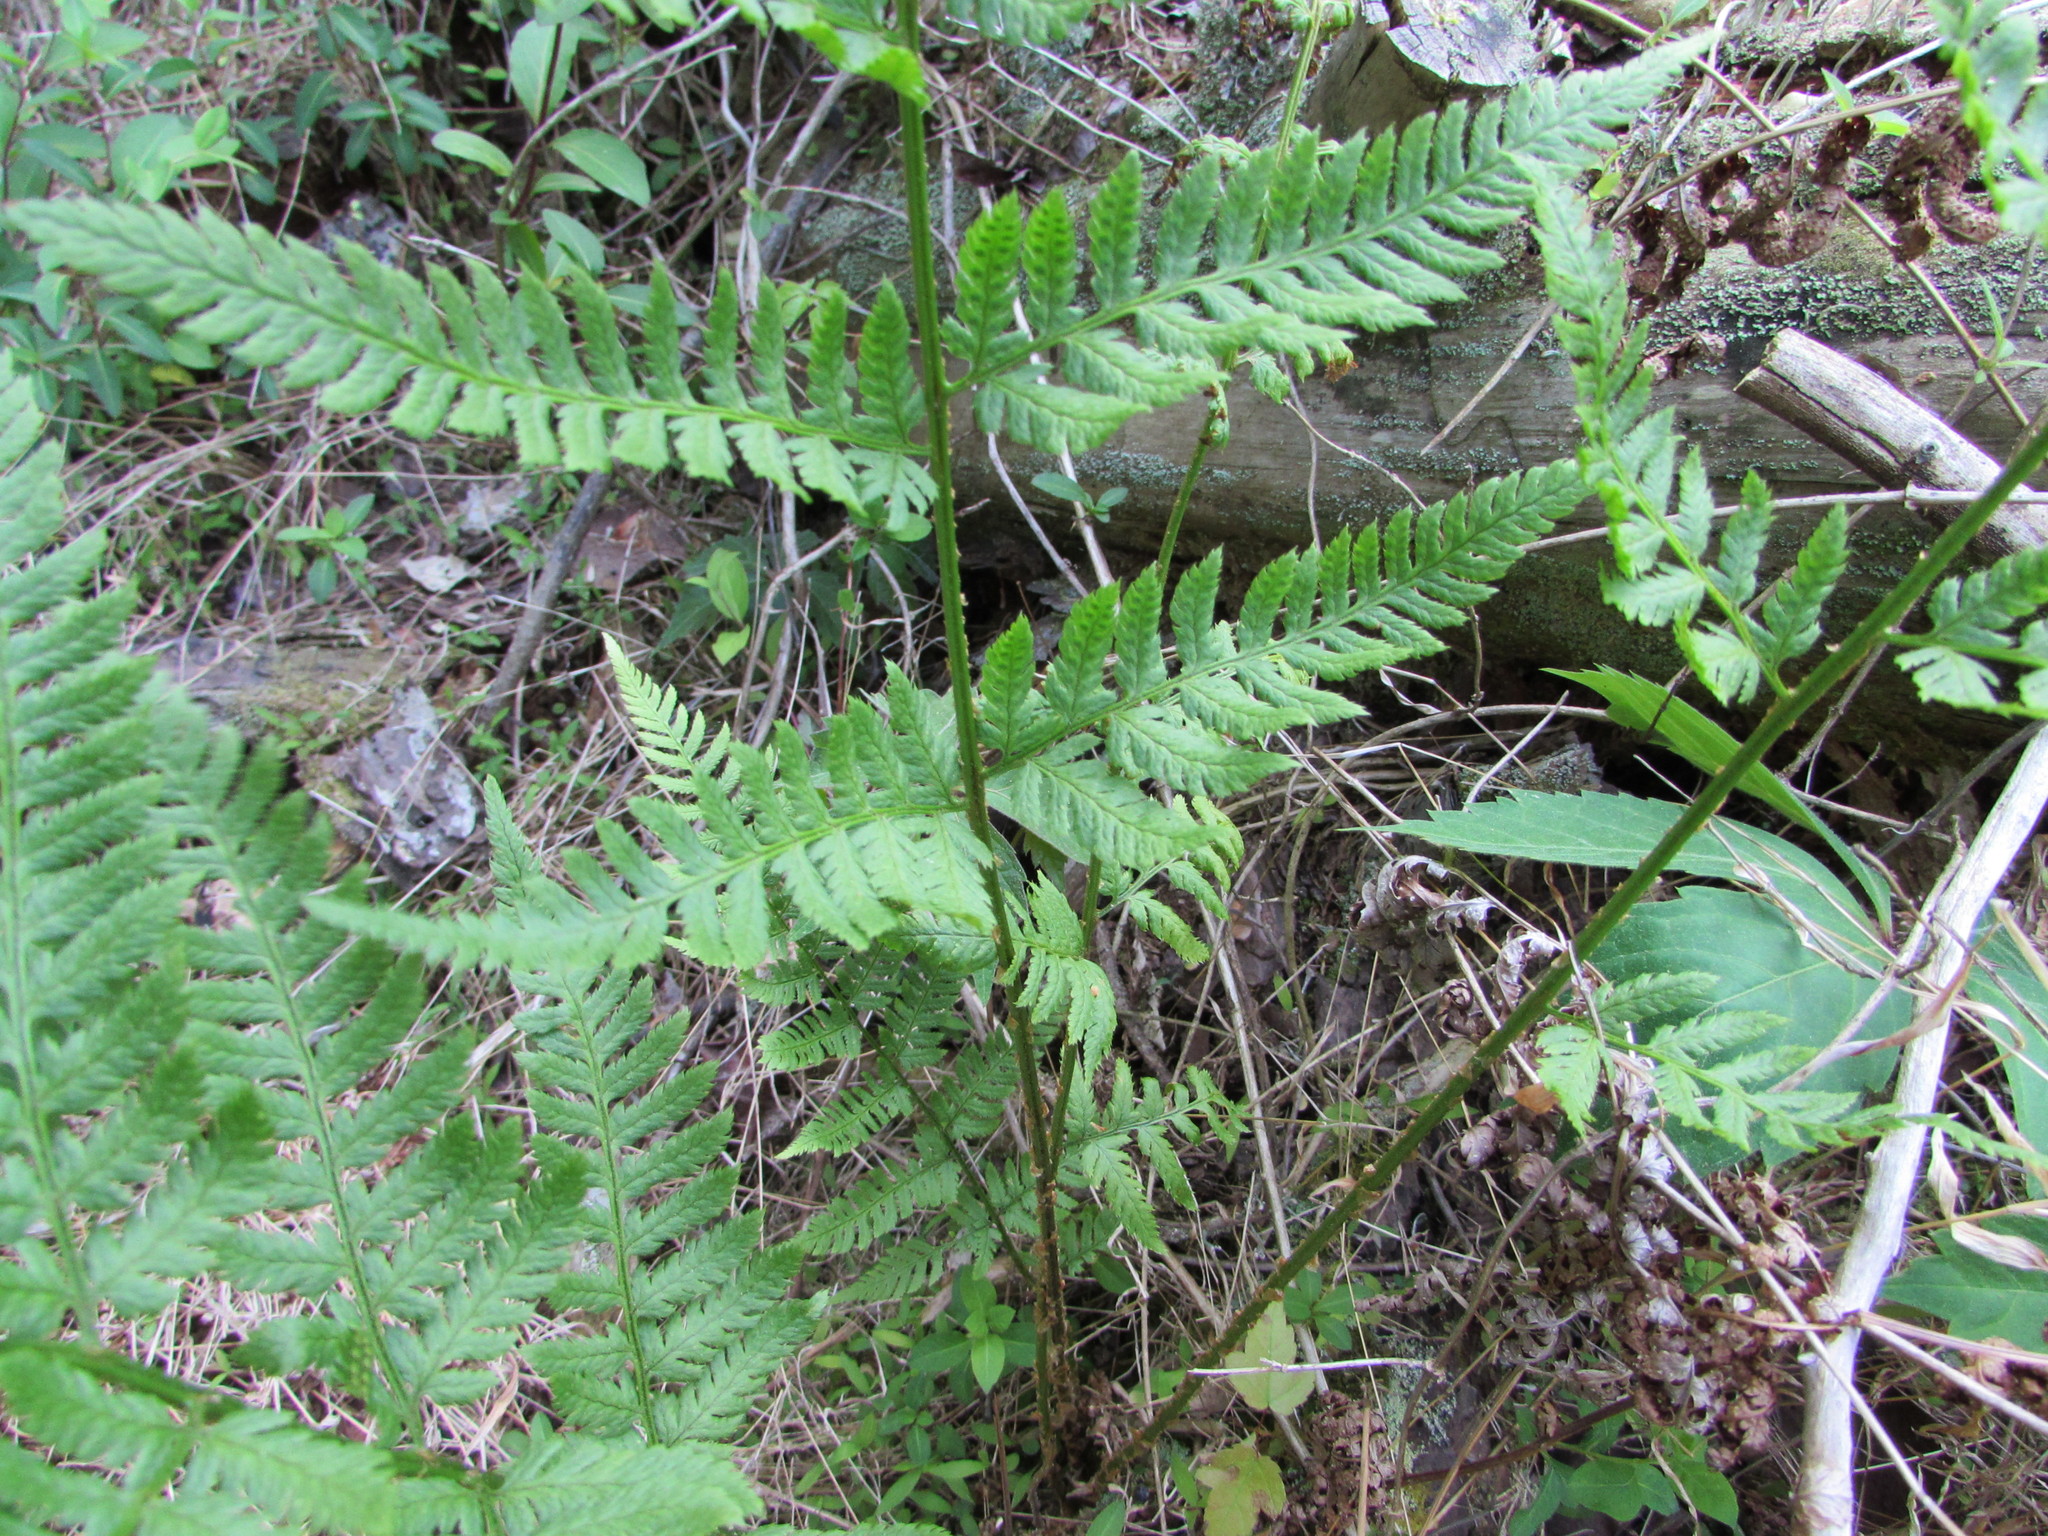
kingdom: Plantae
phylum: Tracheophyta
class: Polypodiopsida
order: Polypodiales
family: Dryopteridaceae
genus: Dryopteris
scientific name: Dryopteris carthusiana
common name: Narrow buckler-fern
